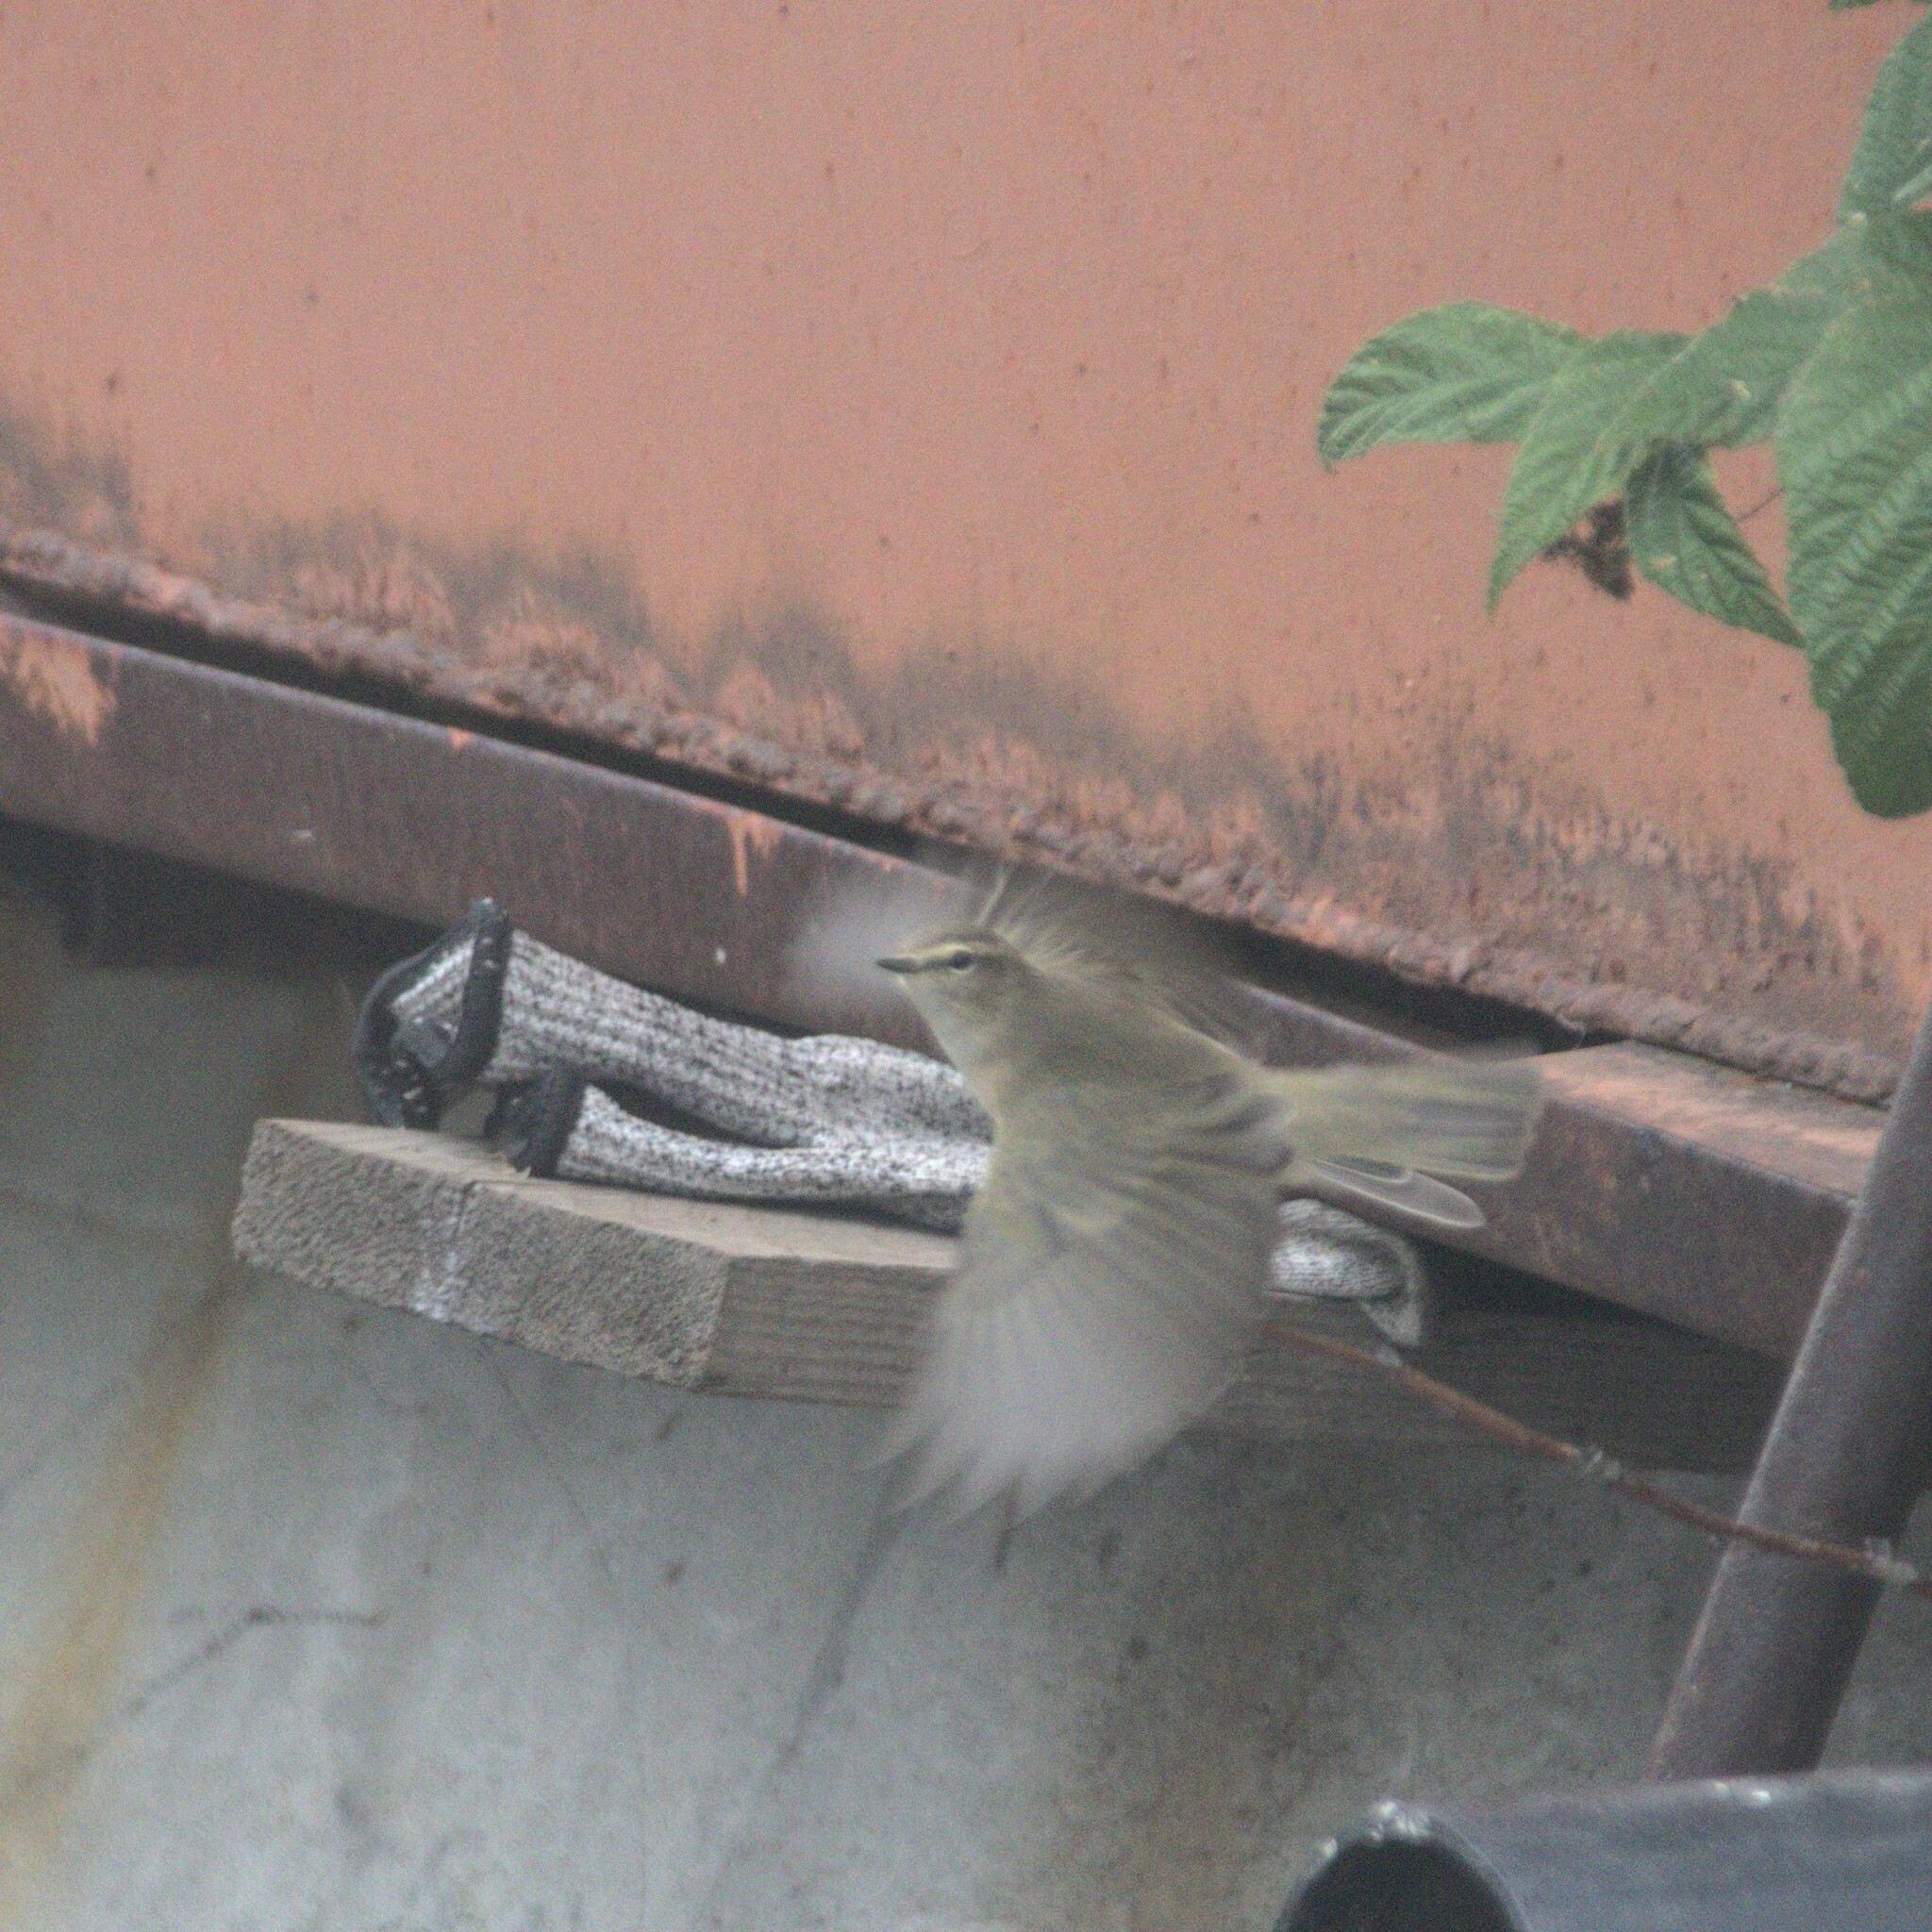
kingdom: Animalia
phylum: Chordata
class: Aves
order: Passeriformes
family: Phylloscopidae
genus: Phylloscopus
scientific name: Phylloscopus collybita
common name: Common chiffchaff
